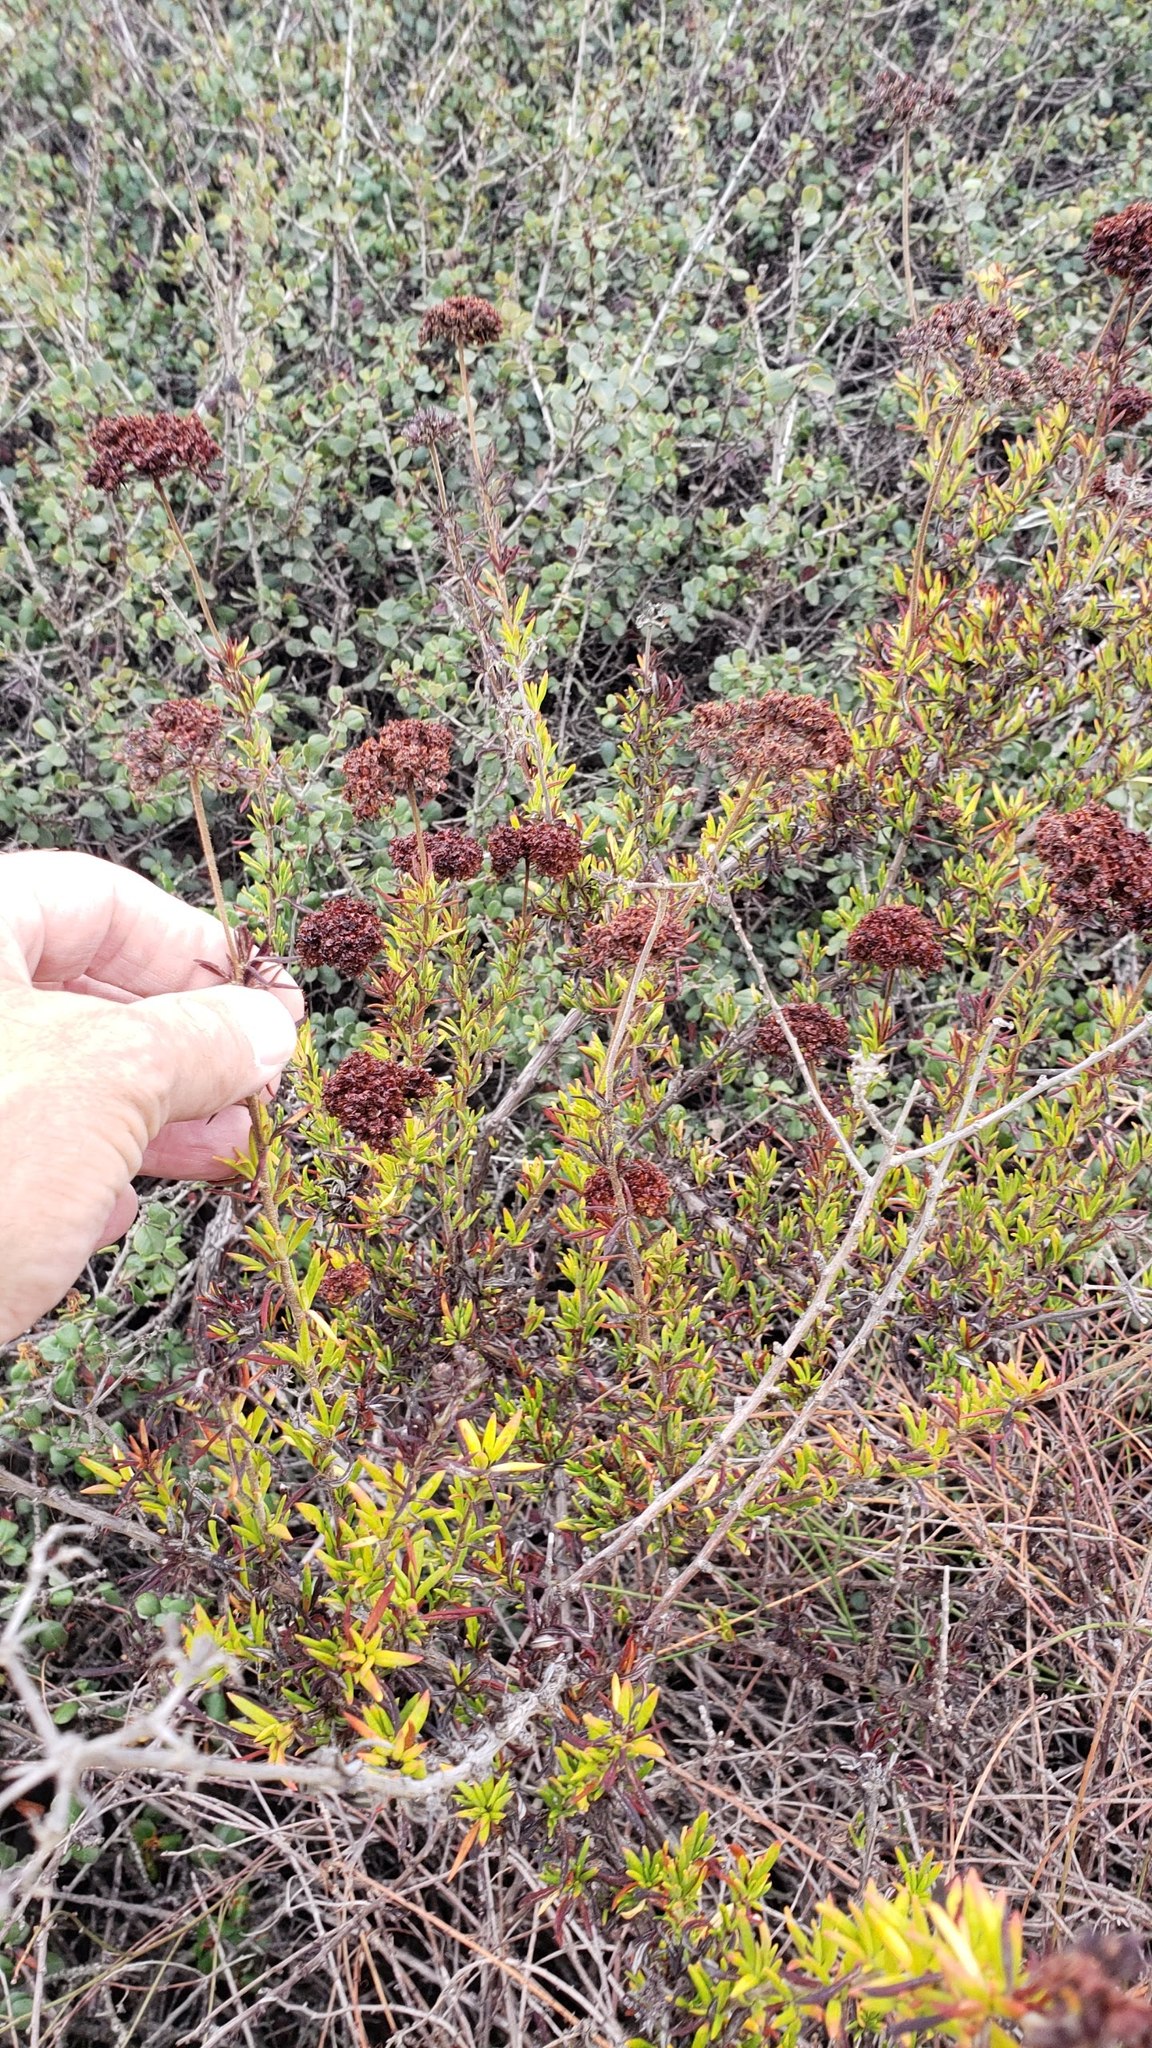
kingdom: Plantae
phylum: Tracheophyta
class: Magnoliopsida
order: Caryophyllales
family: Polygonaceae
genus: Eriogonum
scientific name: Eriogonum fasciculatum
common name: California wild buckwheat
